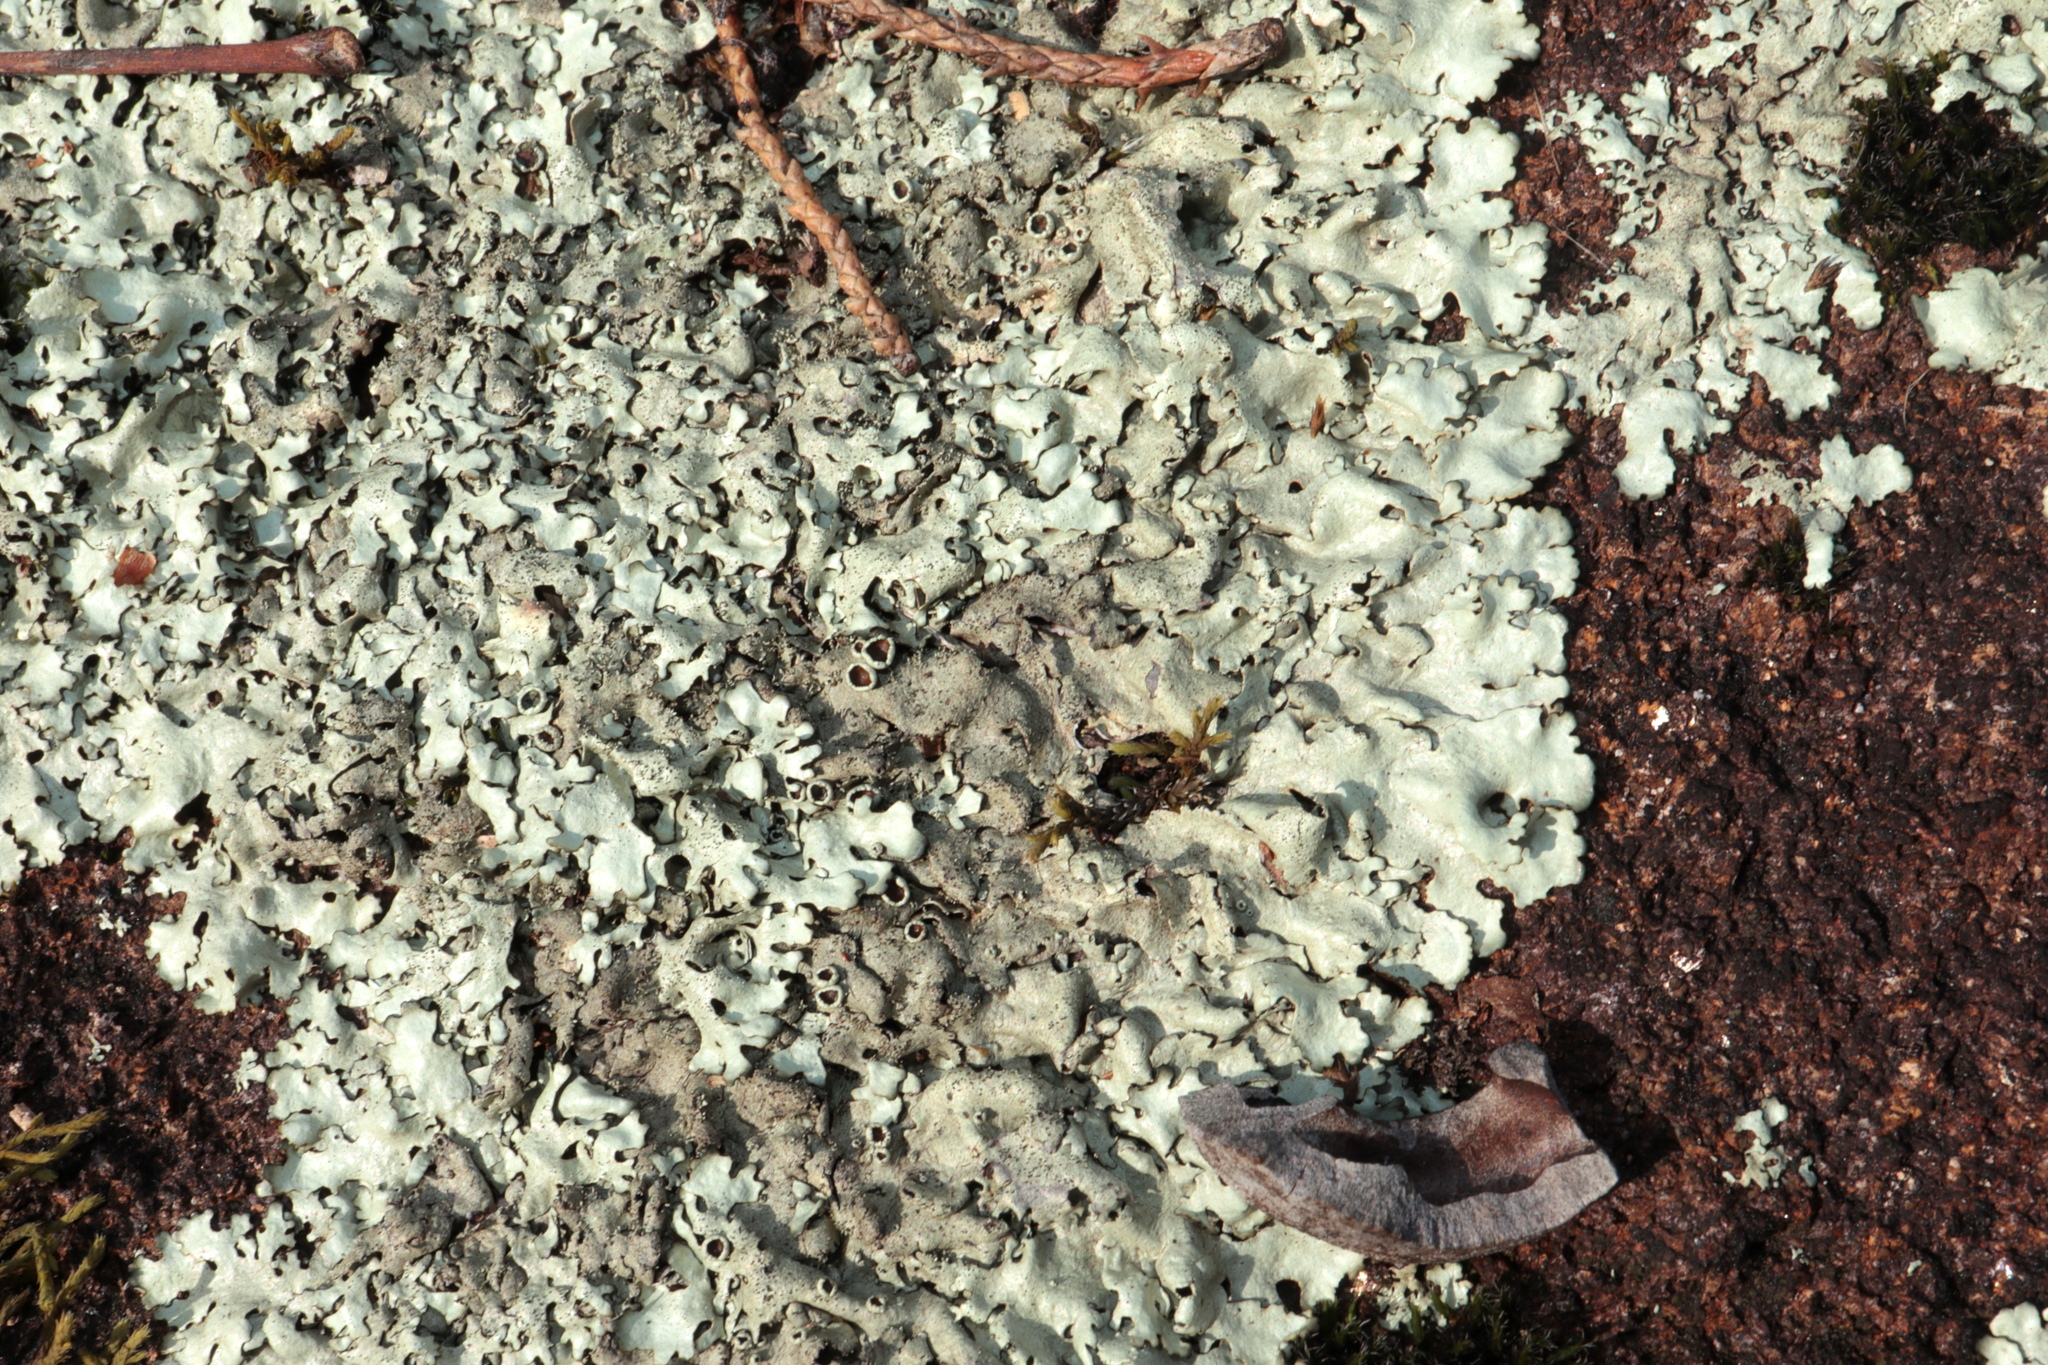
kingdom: Fungi
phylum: Ascomycota
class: Lecanoromycetes
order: Lecanorales
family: Parmeliaceae
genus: Xanthoparmelia
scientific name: Xanthoparmelia conspersa
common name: Peppered rock shield
